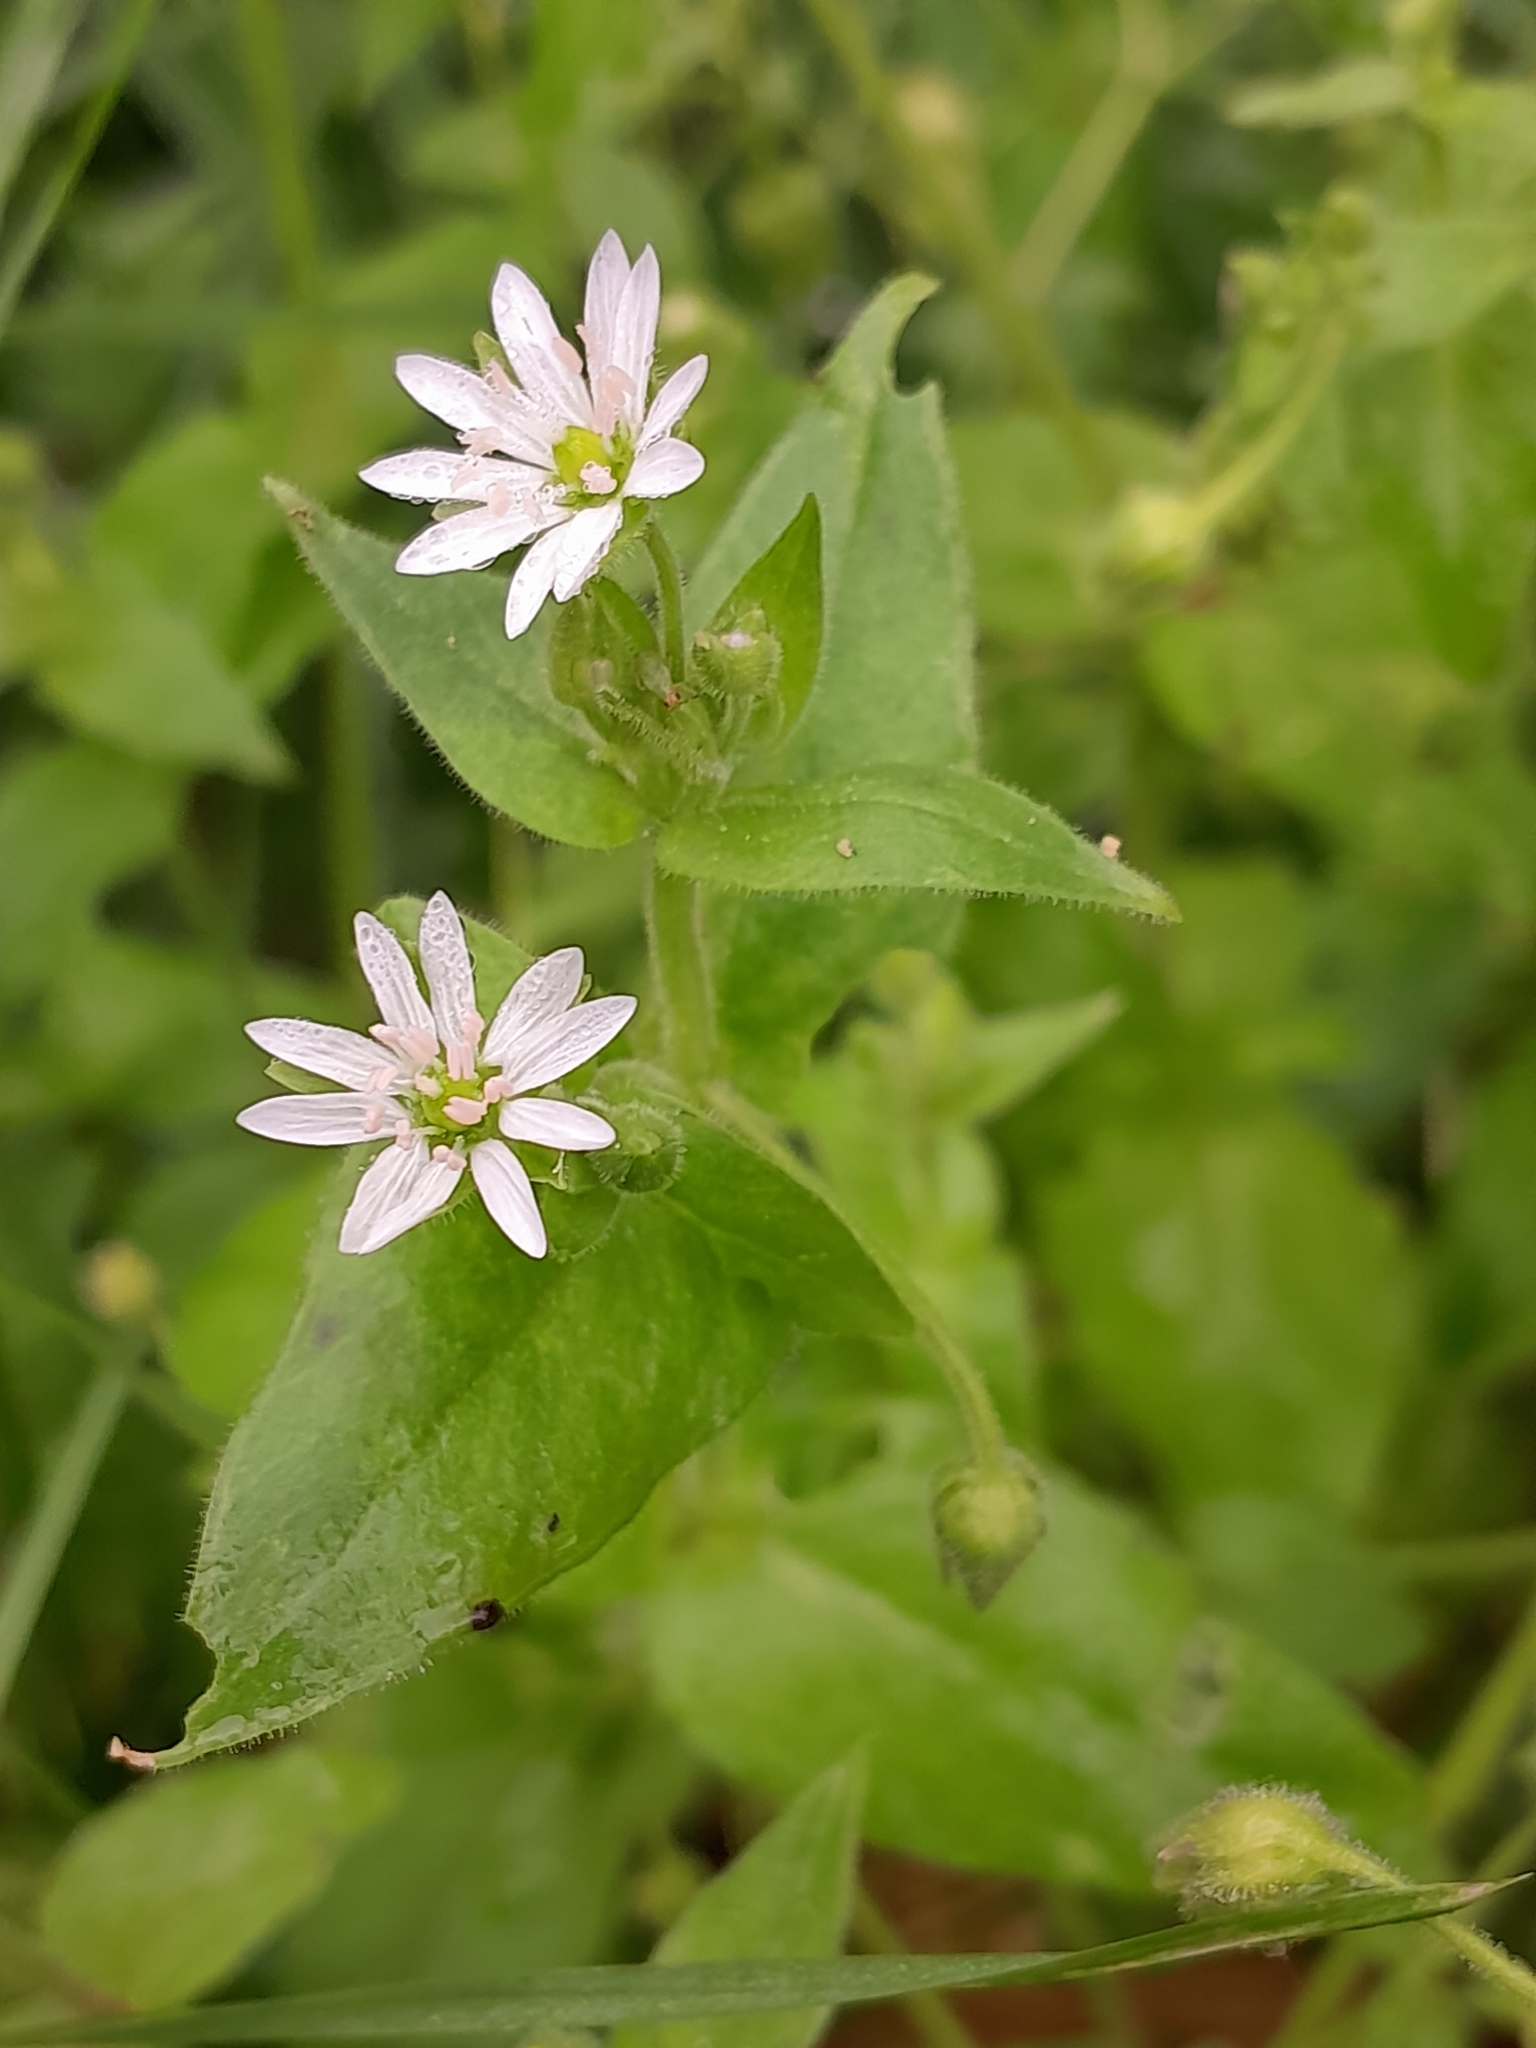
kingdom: Plantae
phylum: Tracheophyta
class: Magnoliopsida
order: Caryophyllales
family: Caryophyllaceae
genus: Stellaria
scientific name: Stellaria aquatica
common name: Water chickweed
